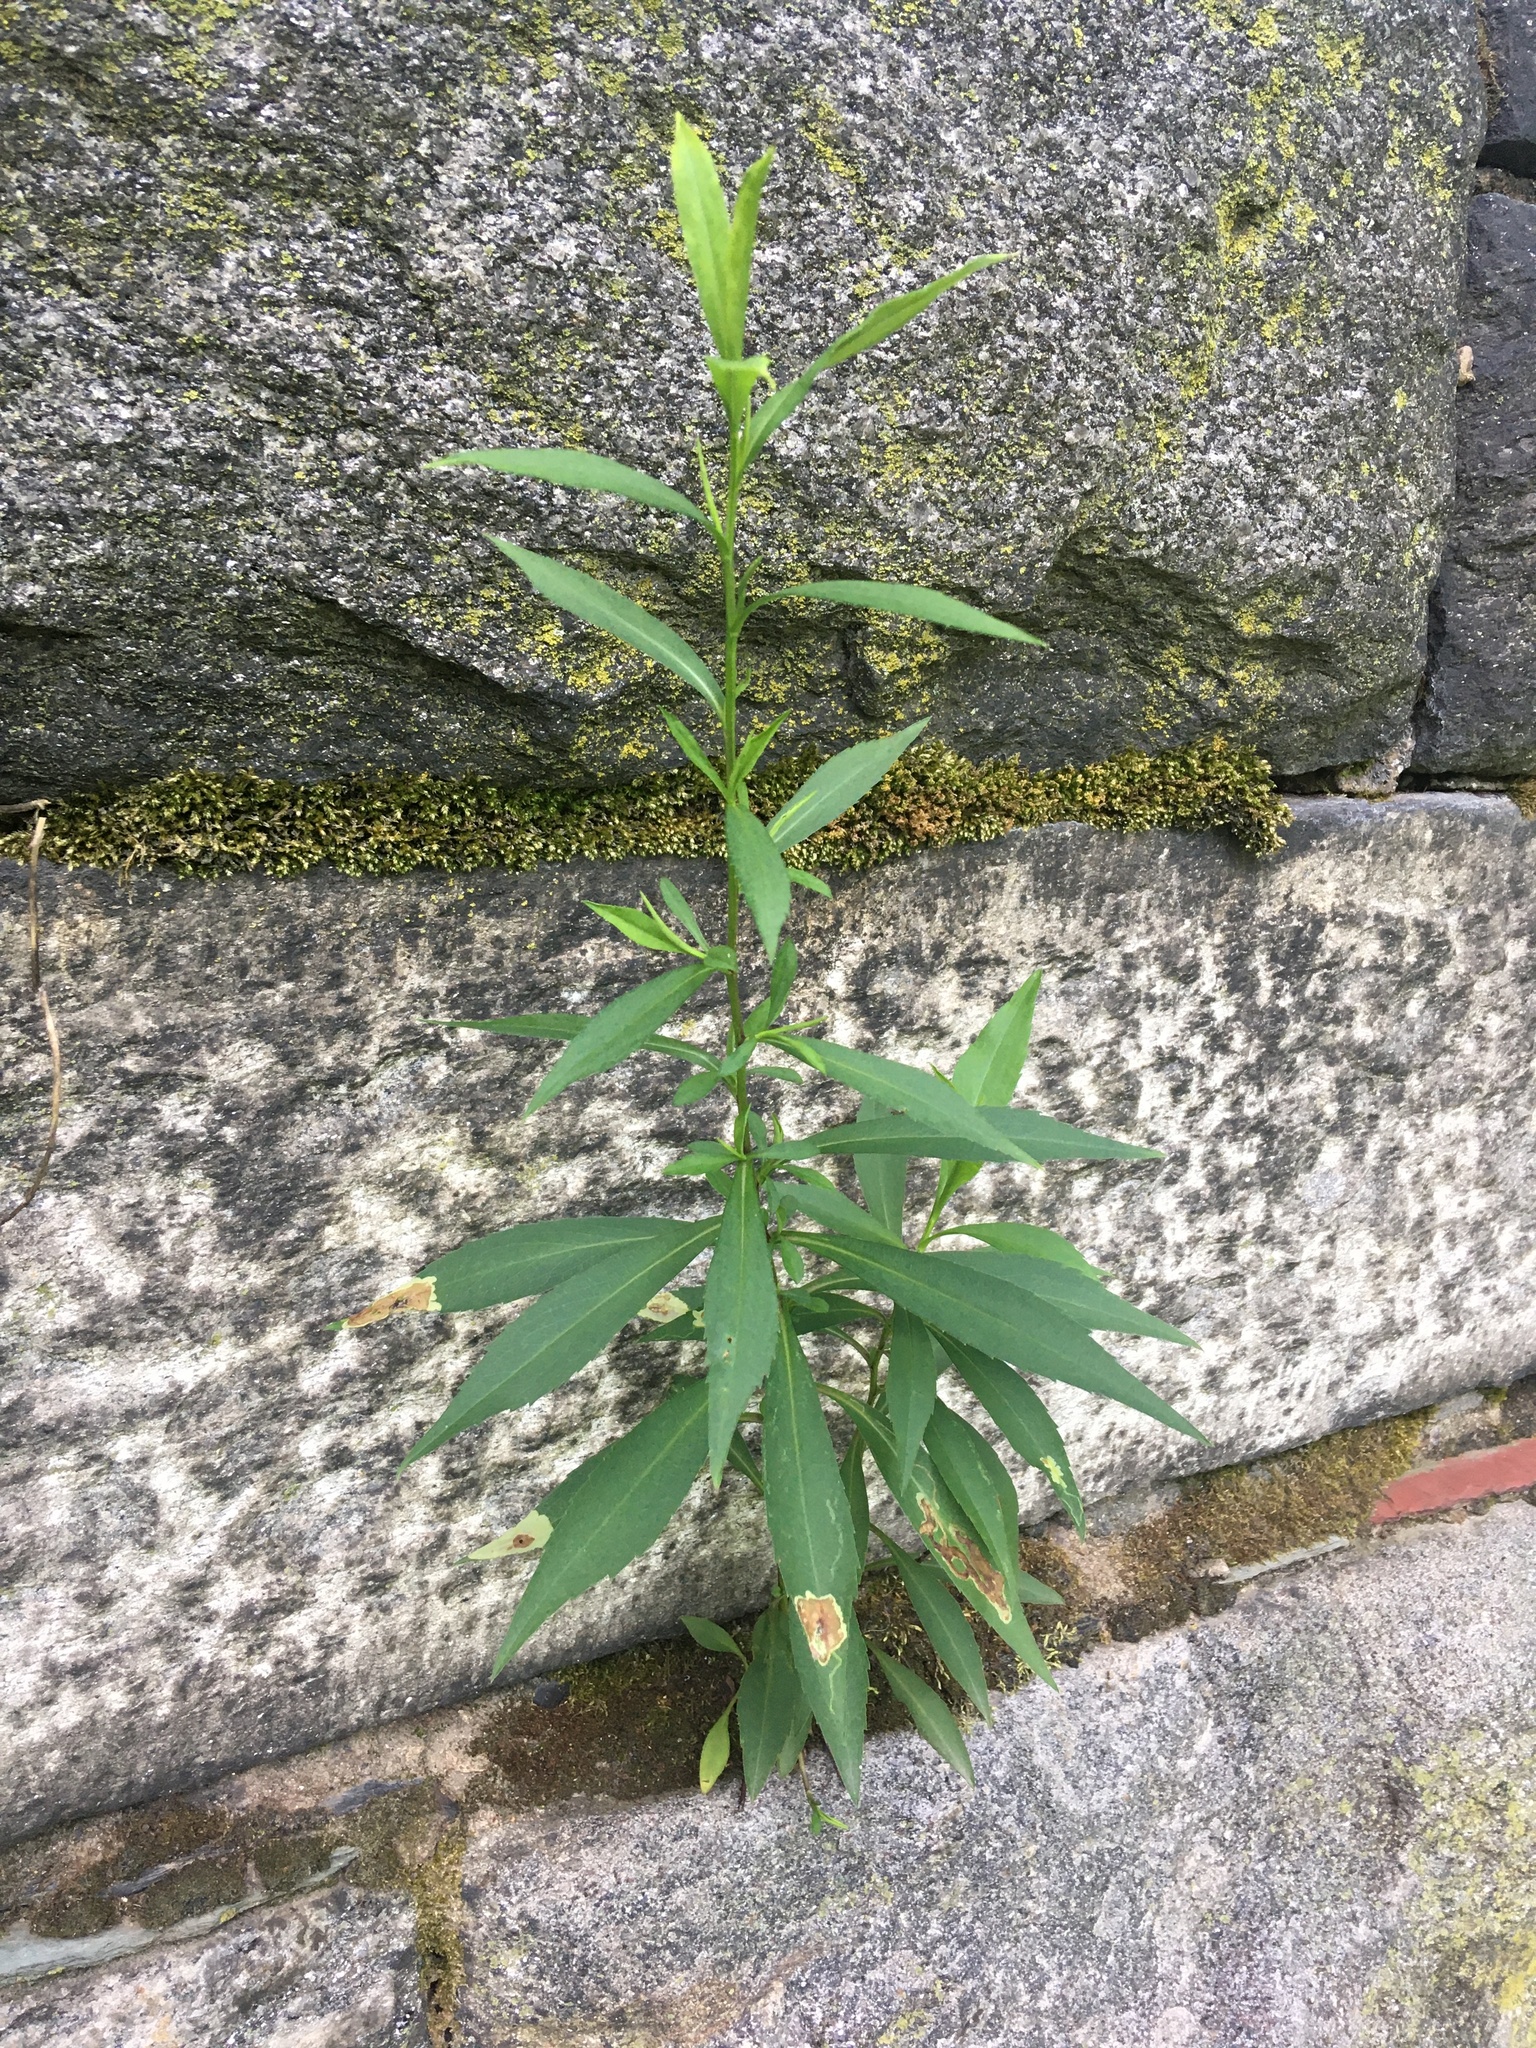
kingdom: Plantae
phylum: Tracheophyta
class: Magnoliopsida
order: Asterales
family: Asteraceae
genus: Symphyotrichum
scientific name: Symphyotrichum lanceolatum
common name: Panicled aster
